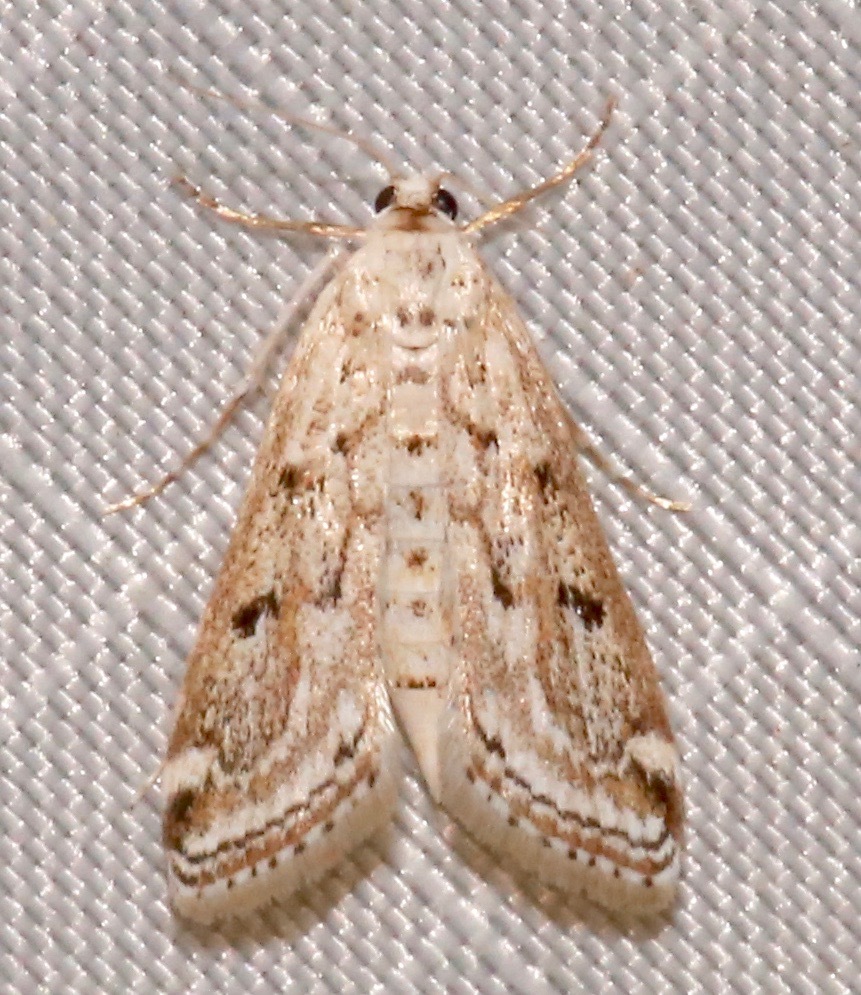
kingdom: Animalia
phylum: Arthropoda
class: Insecta
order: Lepidoptera
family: Crambidae
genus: Parapoynx
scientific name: Parapoynx allionealis
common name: Bladderwort casemaker
